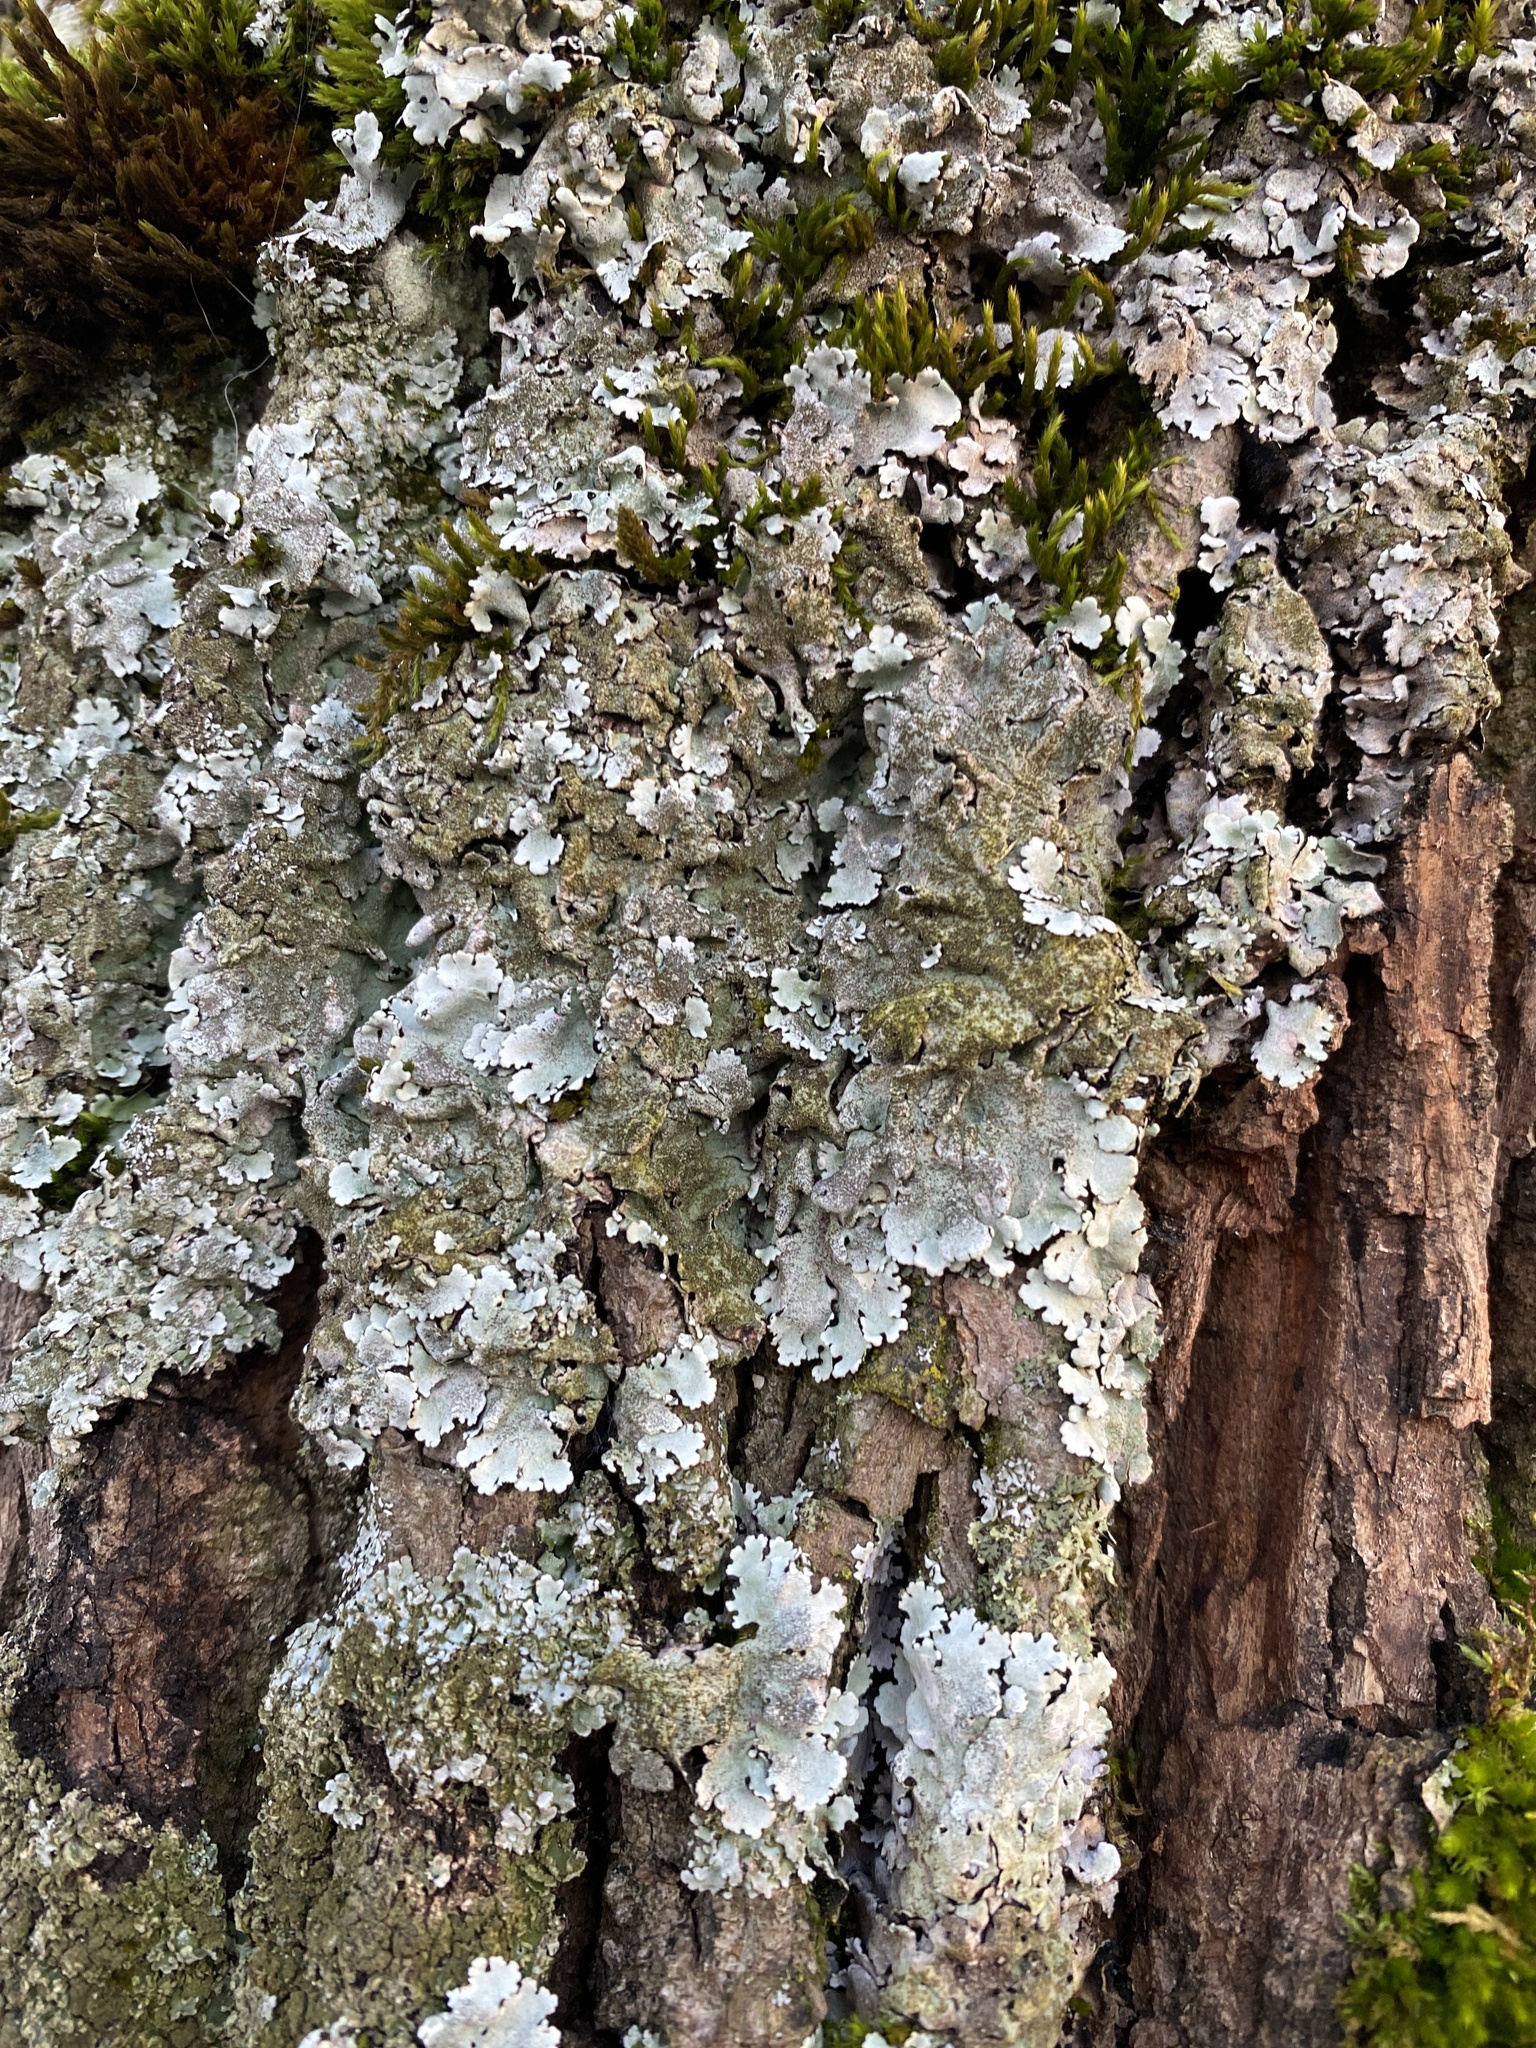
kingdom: Fungi
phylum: Ascomycota
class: Lecanoromycetes
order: Lecanorales
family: Parmeliaceae
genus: Parmelina
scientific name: Parmelina tiliacea
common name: Linden shield lichen
